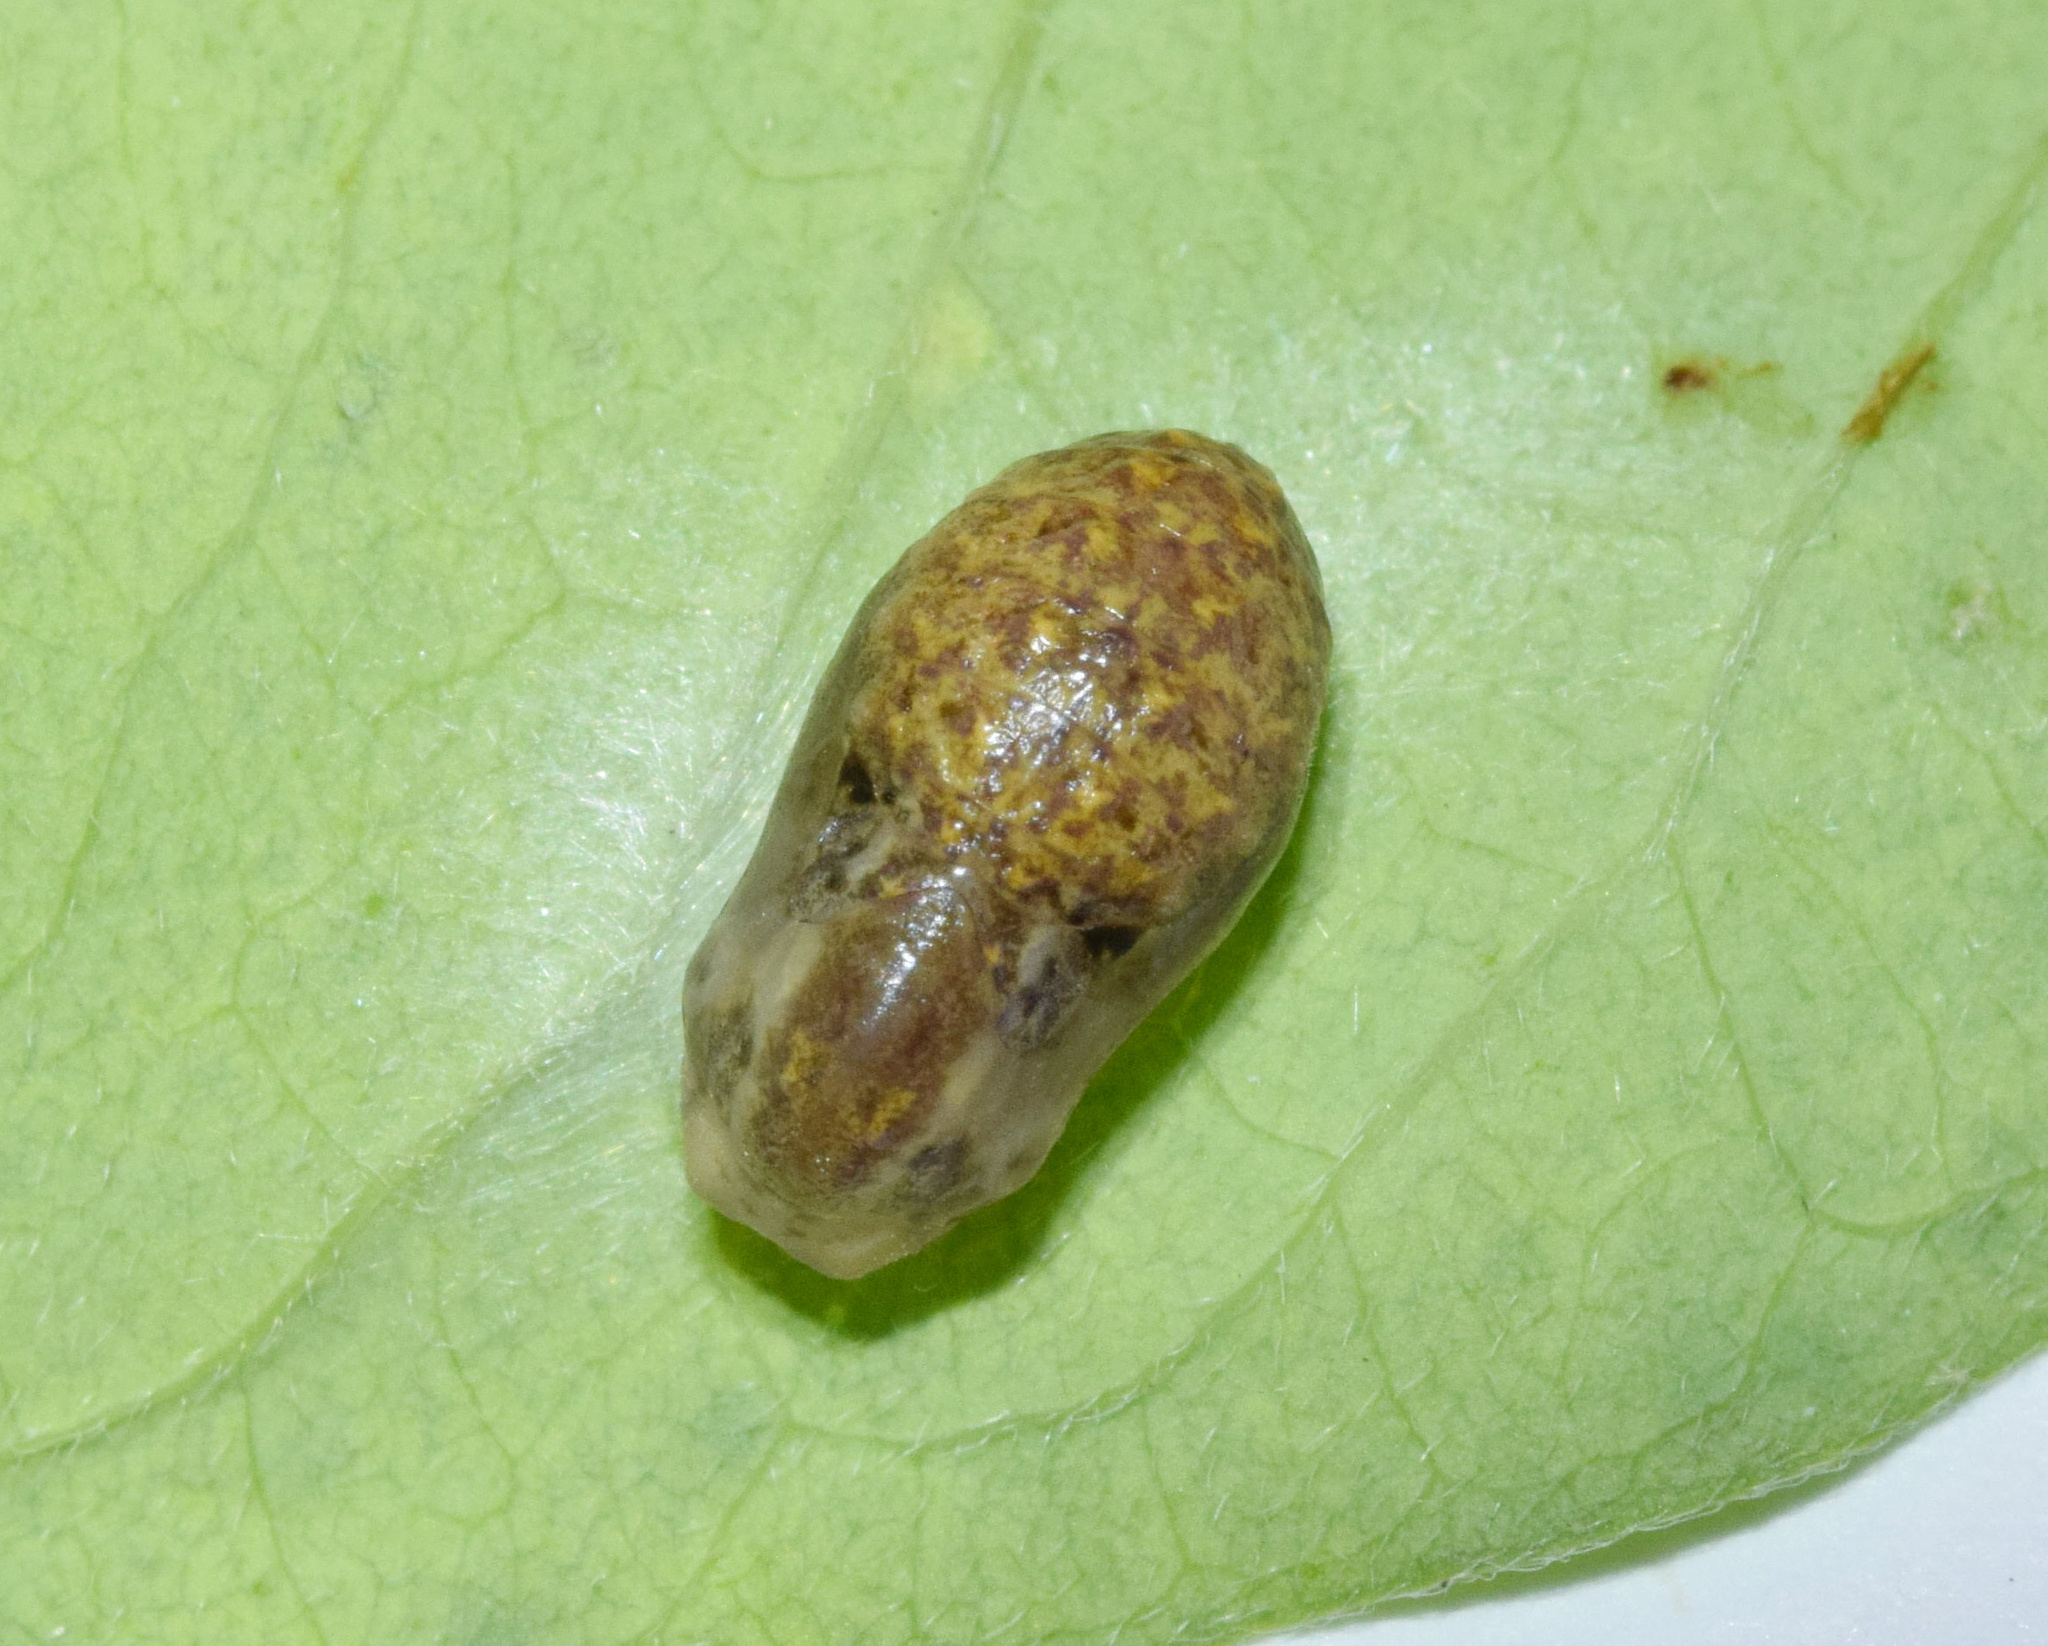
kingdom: Animalia
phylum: Arthropoda
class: Insecta
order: Lepidoptera
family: Lycaenidae
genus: Lachnocnema
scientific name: Lachnocnema bibulus
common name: Common woolly legs
